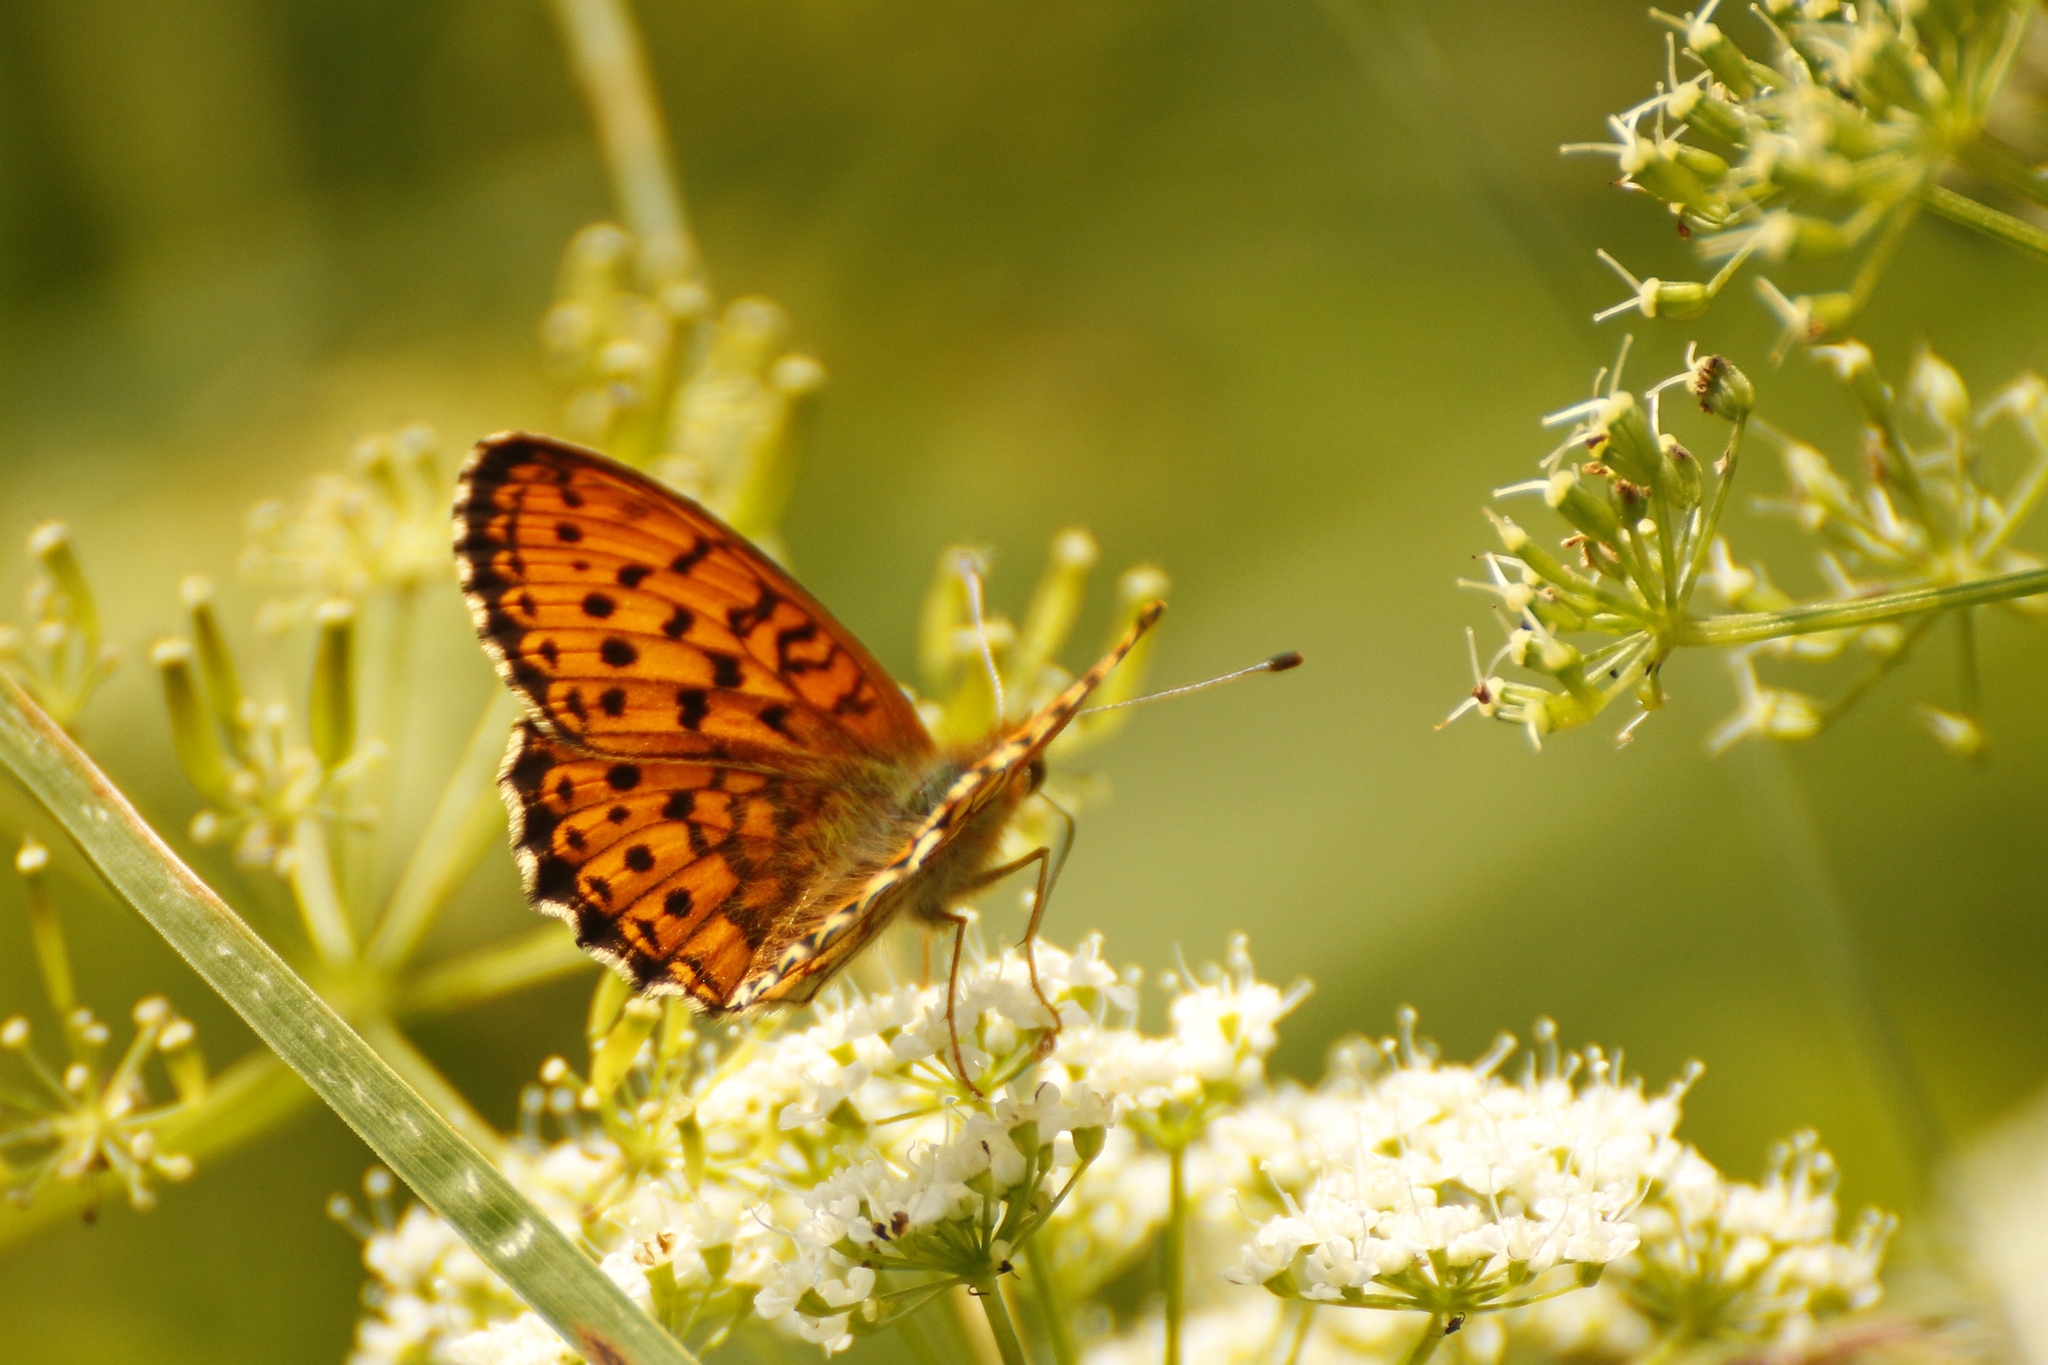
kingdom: Animalia
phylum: Arthropoda
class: Insecta
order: Lepidoptera
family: Nymphalidae
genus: Brenthis
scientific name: Brenthis ino
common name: Lesser marbled fritillary
